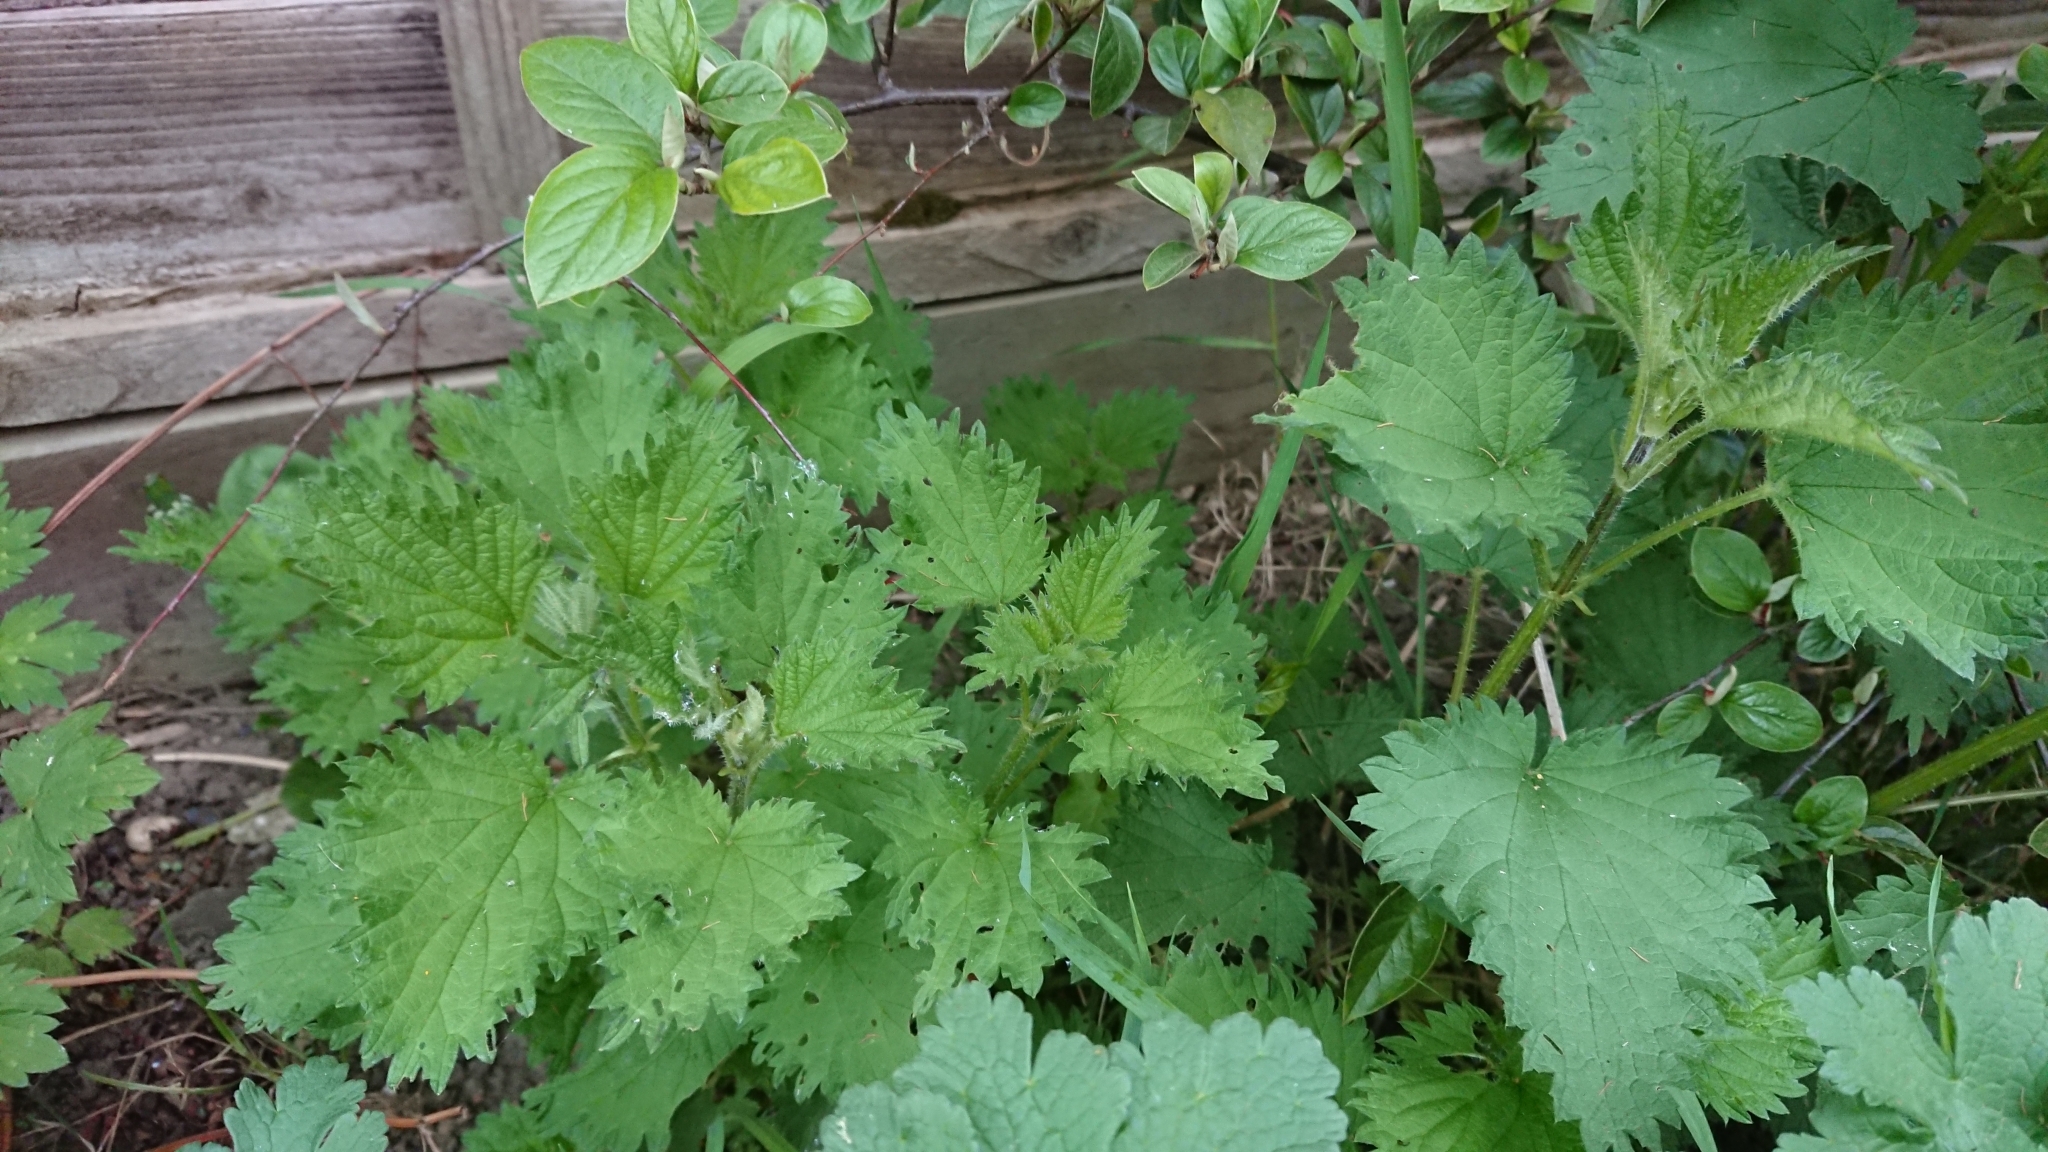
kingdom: Plantae
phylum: Tracheophyta
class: Magnoliopsida
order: Rosales
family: Urticaceae
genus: Urtica
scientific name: Urtica dioica
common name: Common nettle
